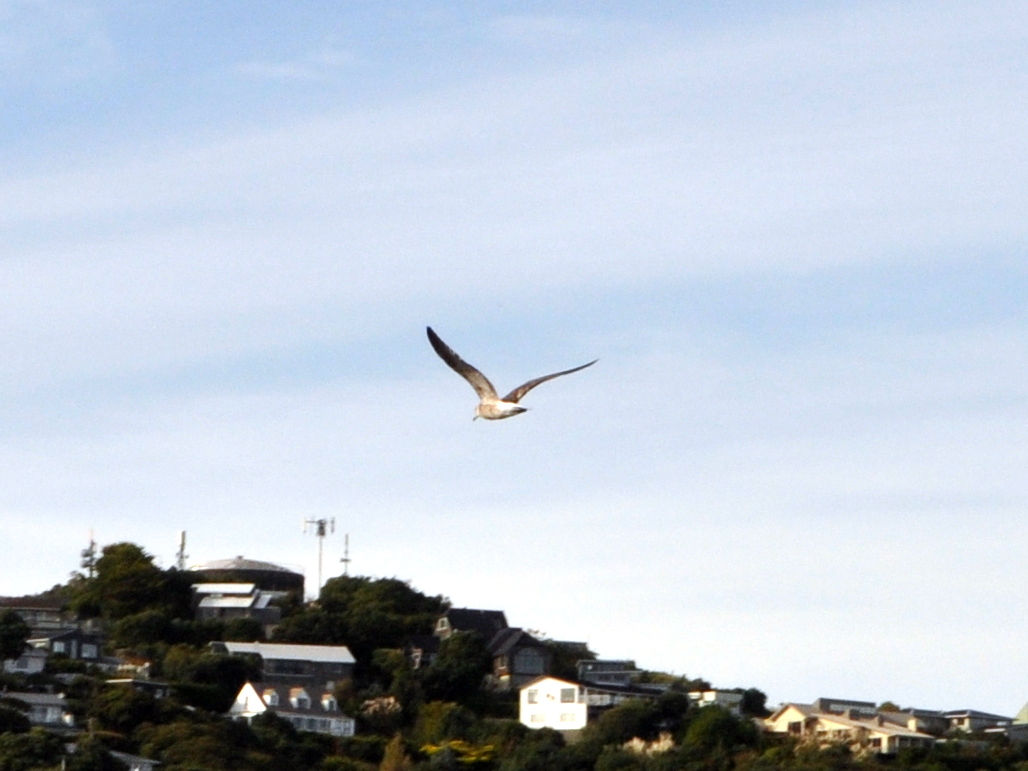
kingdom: Animalia
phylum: Chordata
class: Aves
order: Charadriiformes
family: Laridae
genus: Larus
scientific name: Larus dominicanus
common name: Kelp gull
